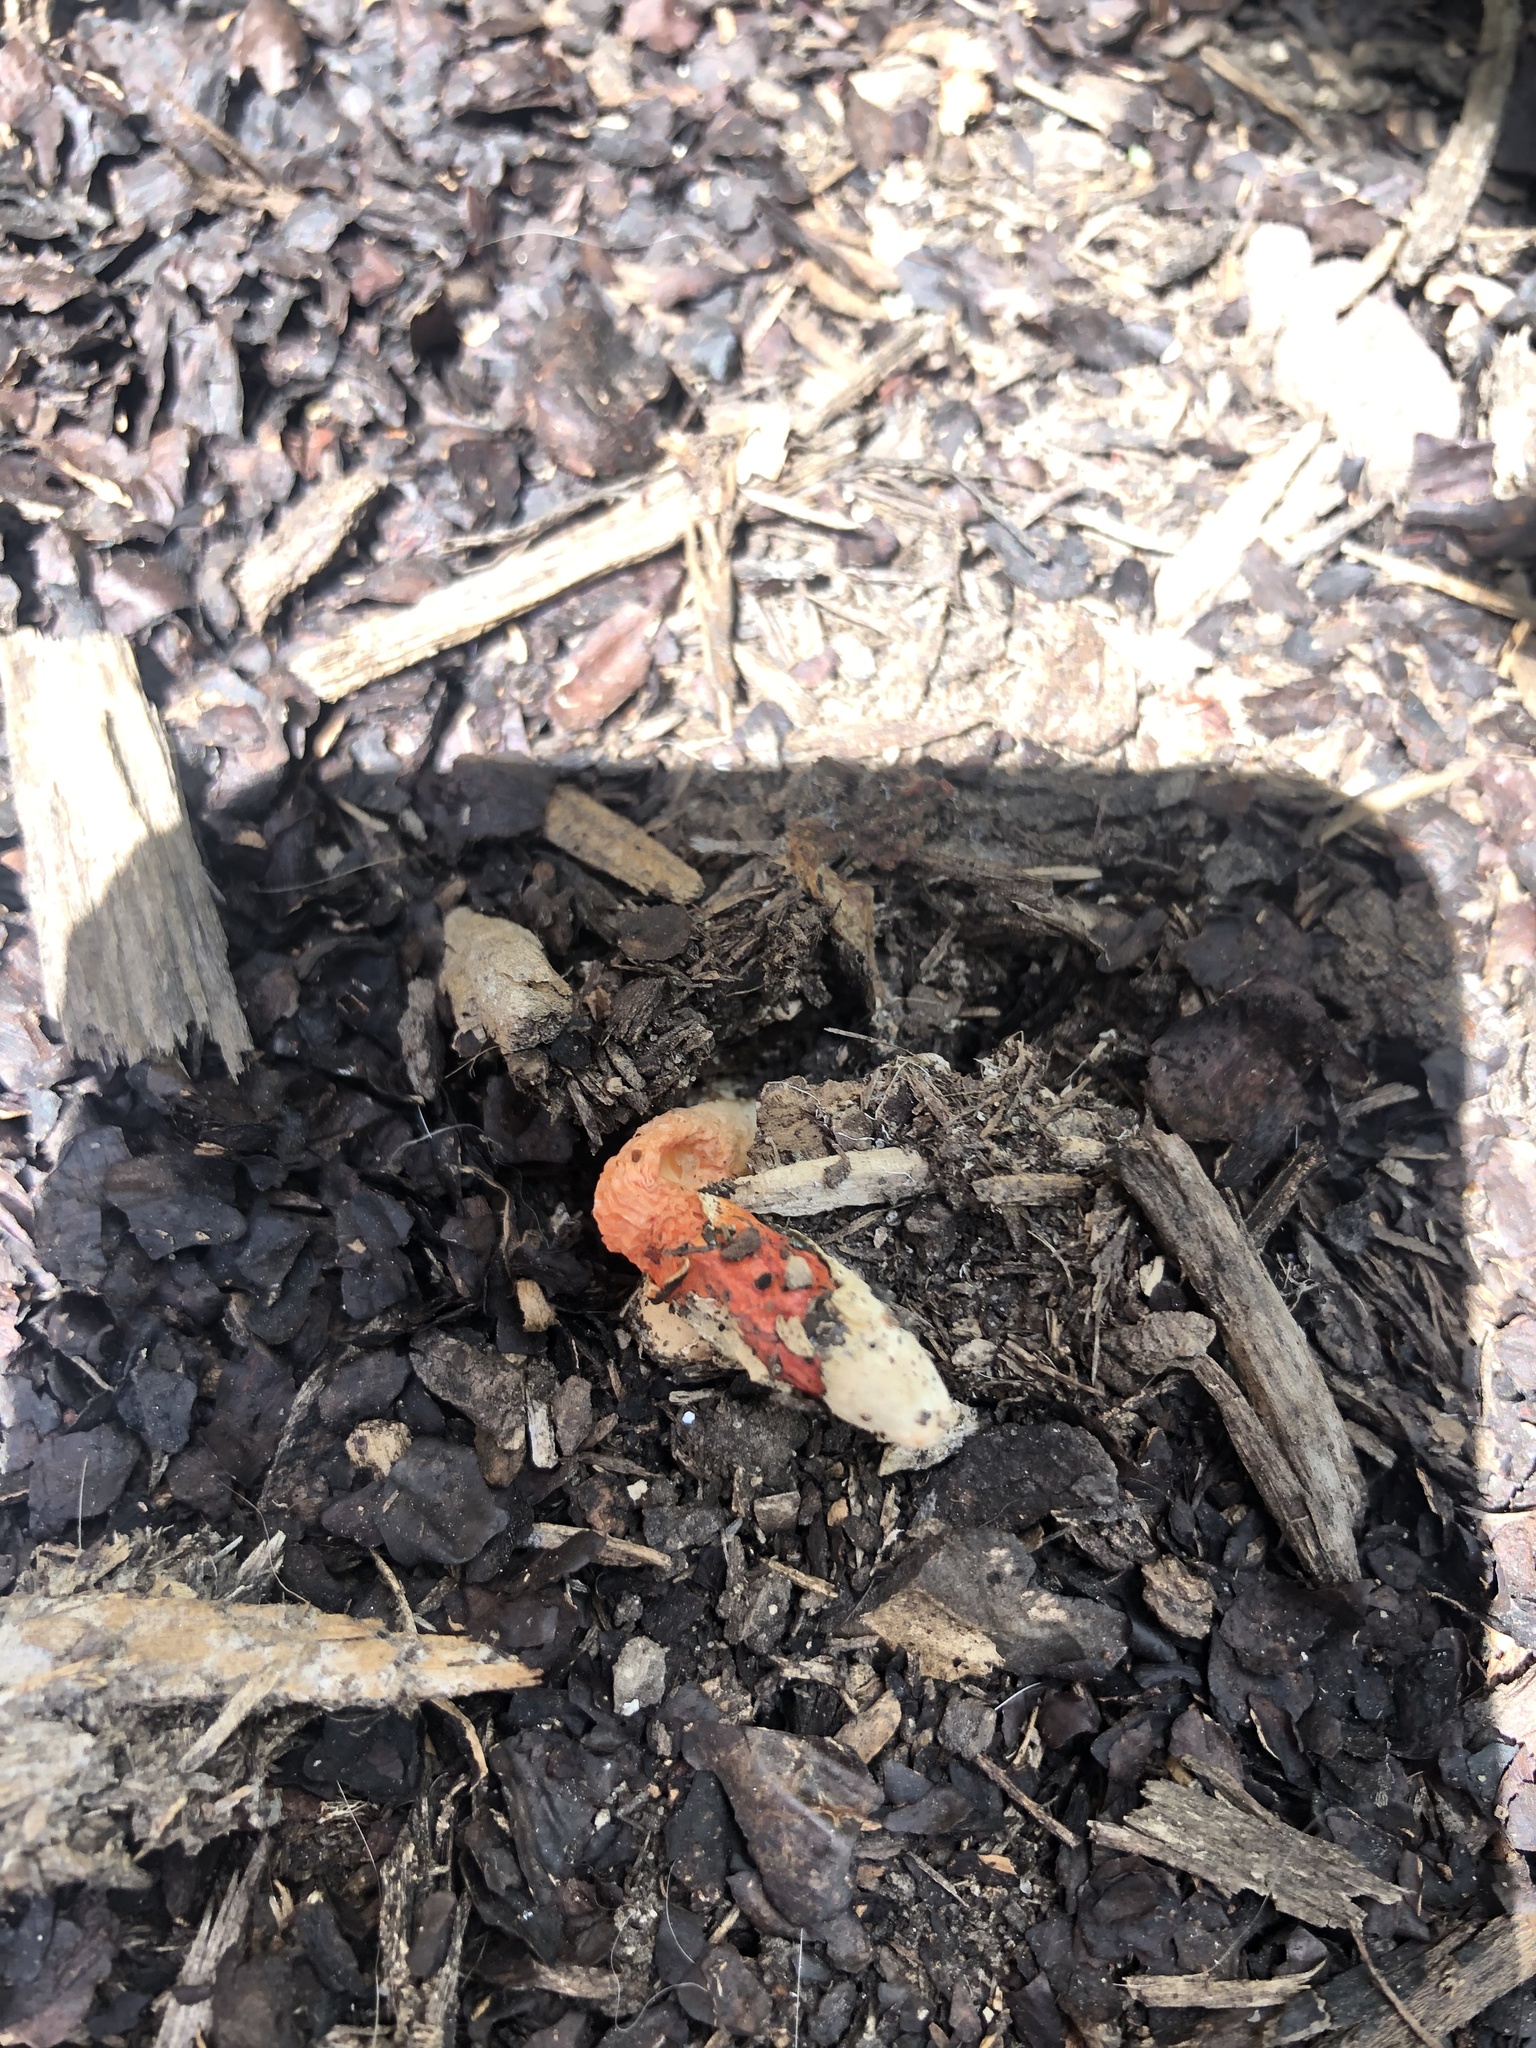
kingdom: Fungi
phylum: Basidiomycota
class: Agaricomycetes
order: Phallales
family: Phallaceae
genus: Phallus
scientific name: Phallus rugulosus
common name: Wrinkly stinkhorn
